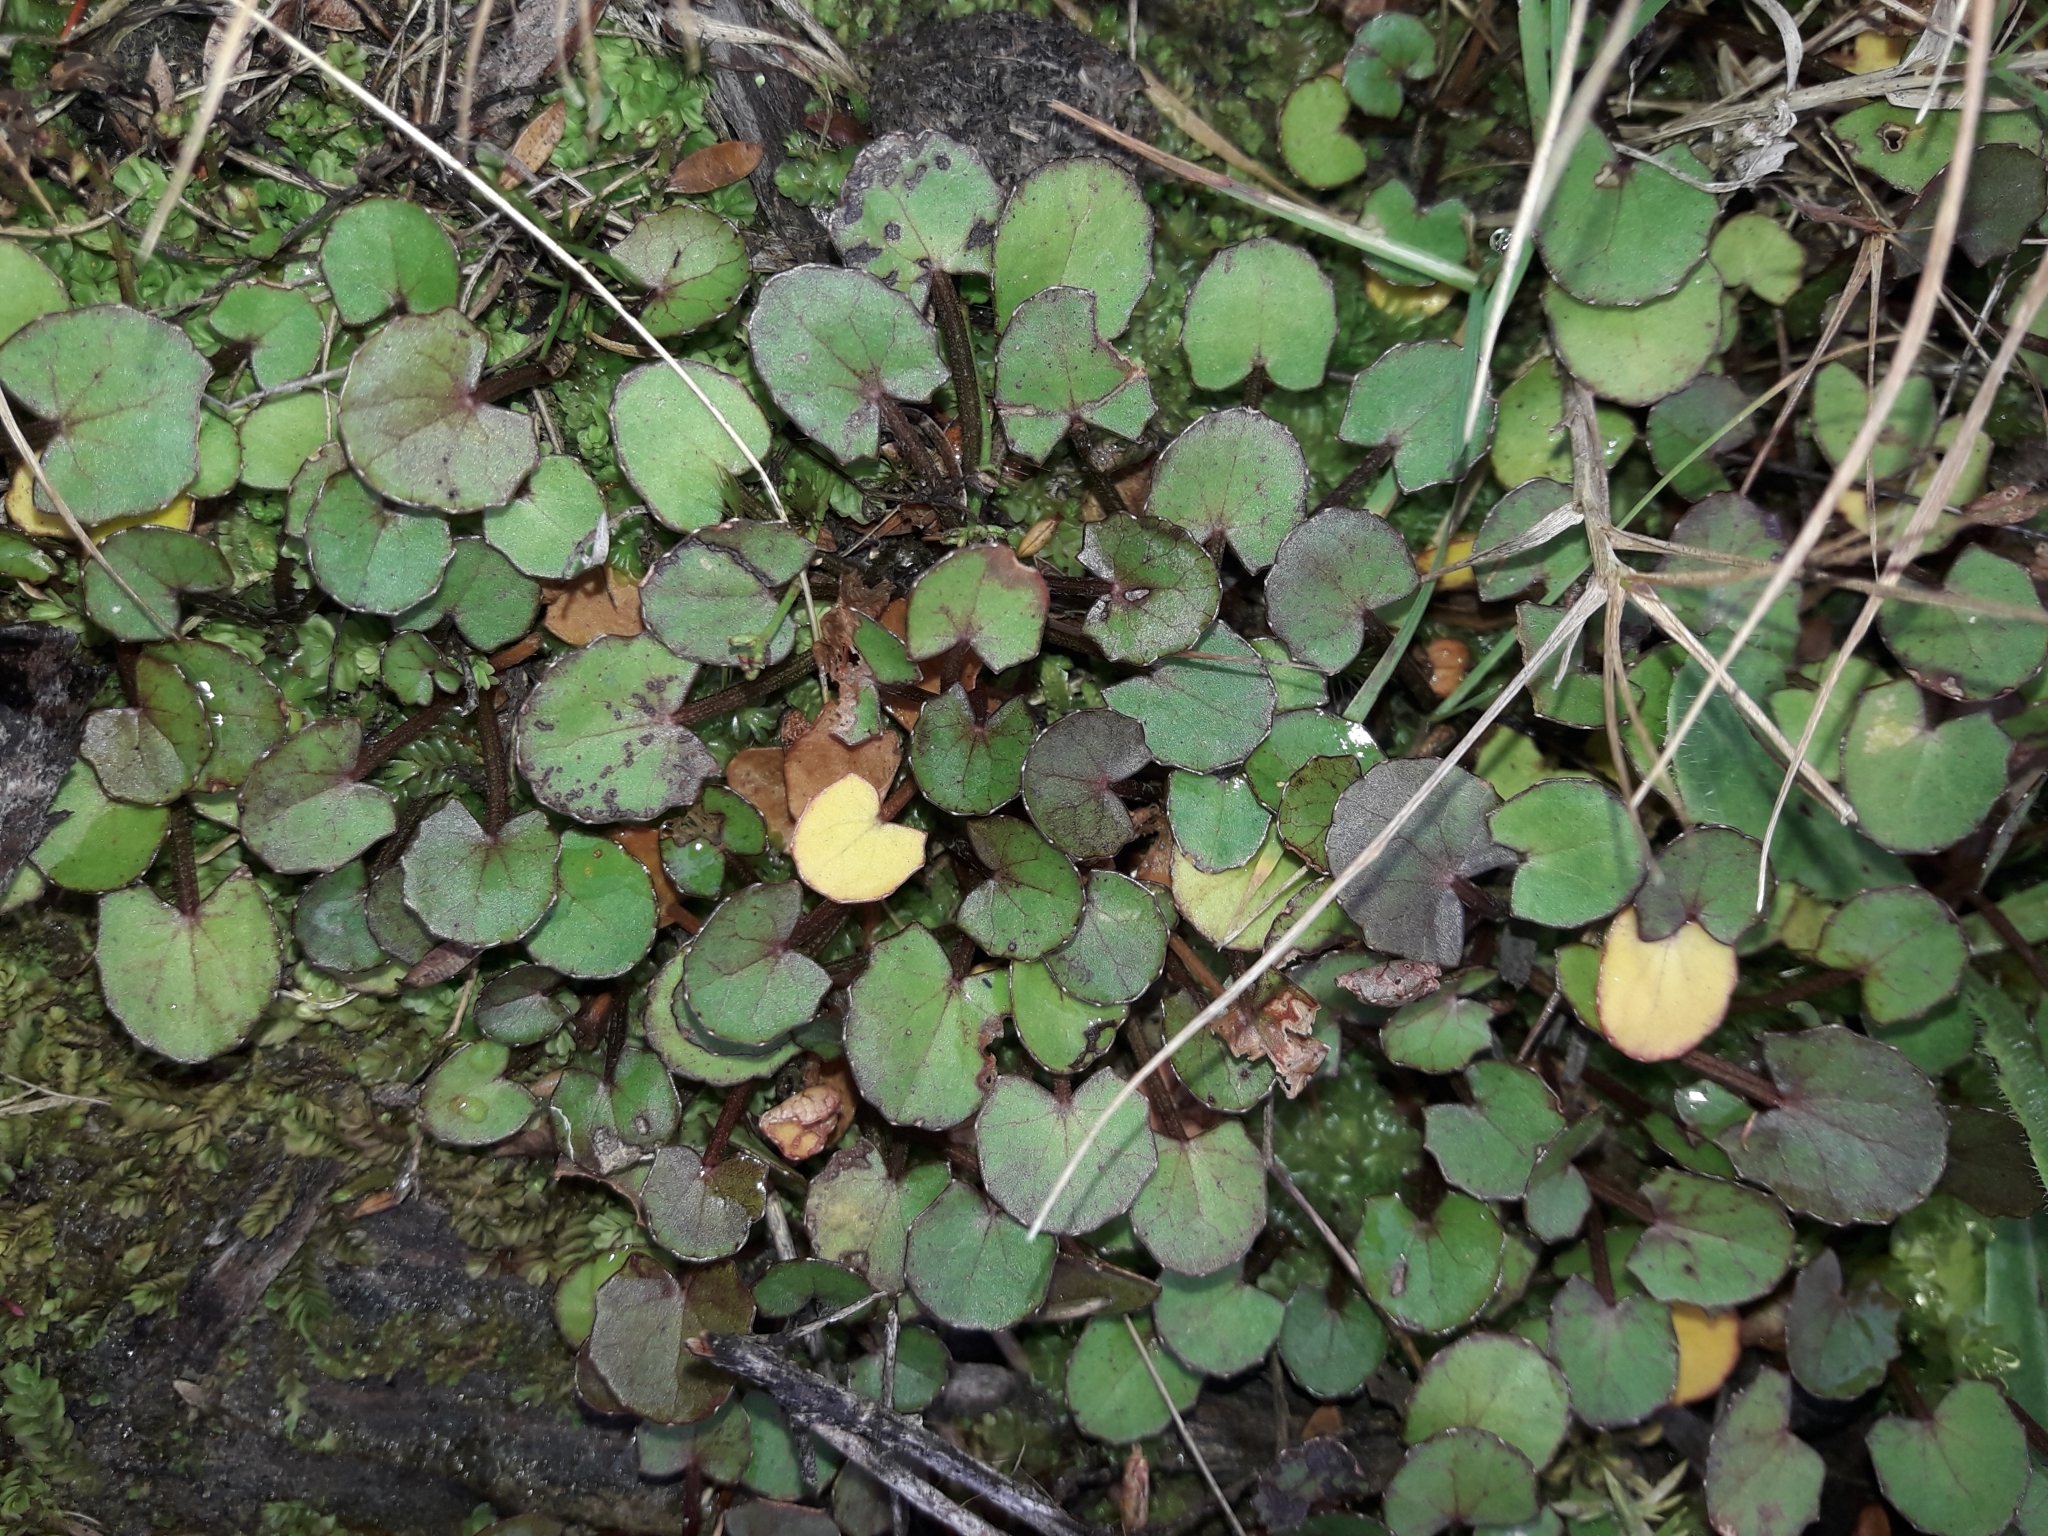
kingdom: Plantae
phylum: Tracheophyta
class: Magnoliopsida
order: Apiales
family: Apiaceae
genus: Centella
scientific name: Centella uniflora
